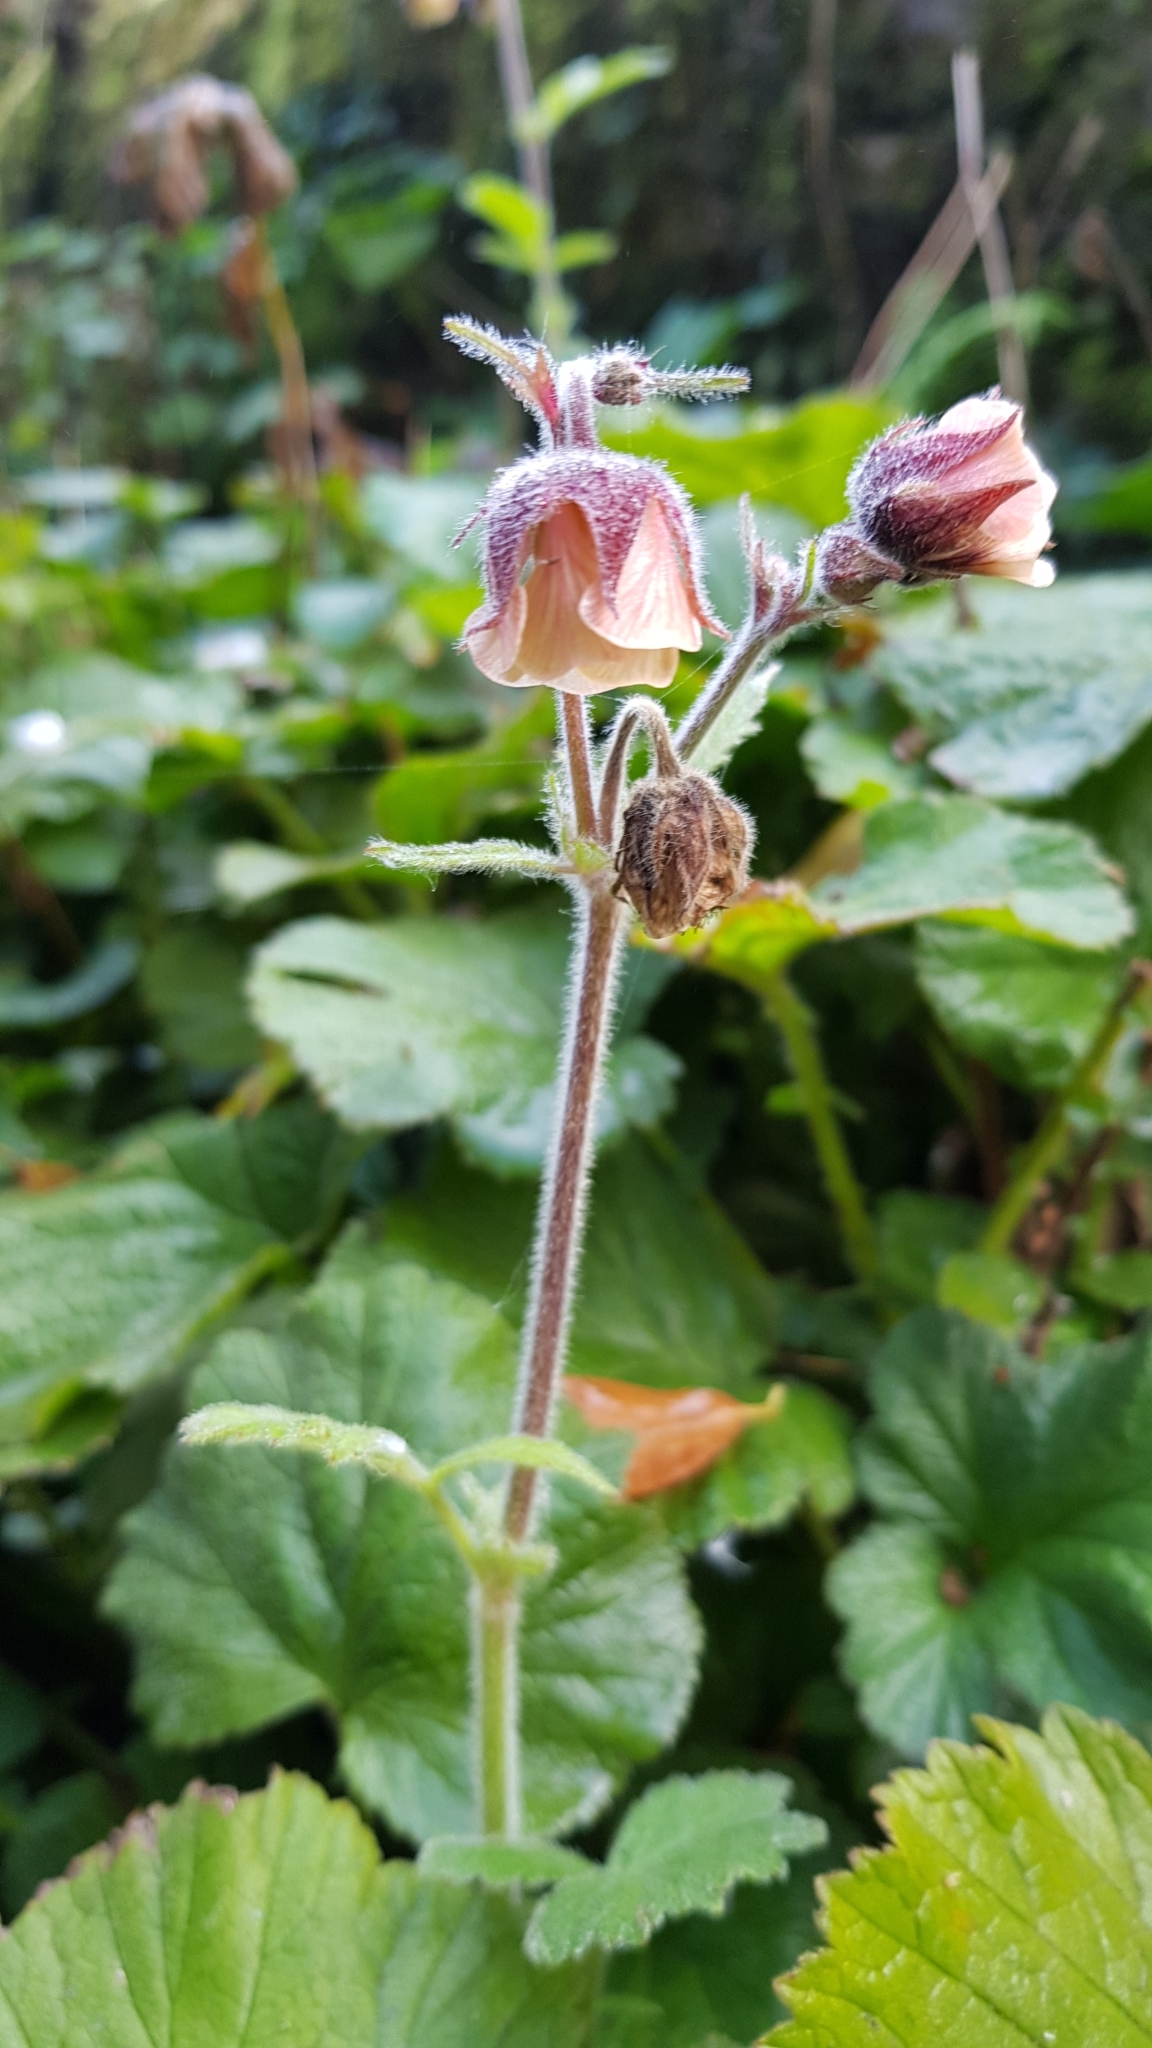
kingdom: Plantae
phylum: Tracheophyta
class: Magnoliopsida
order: Rosales
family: Rosaceae
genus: Geum
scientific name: Geum rivale
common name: Water avens
